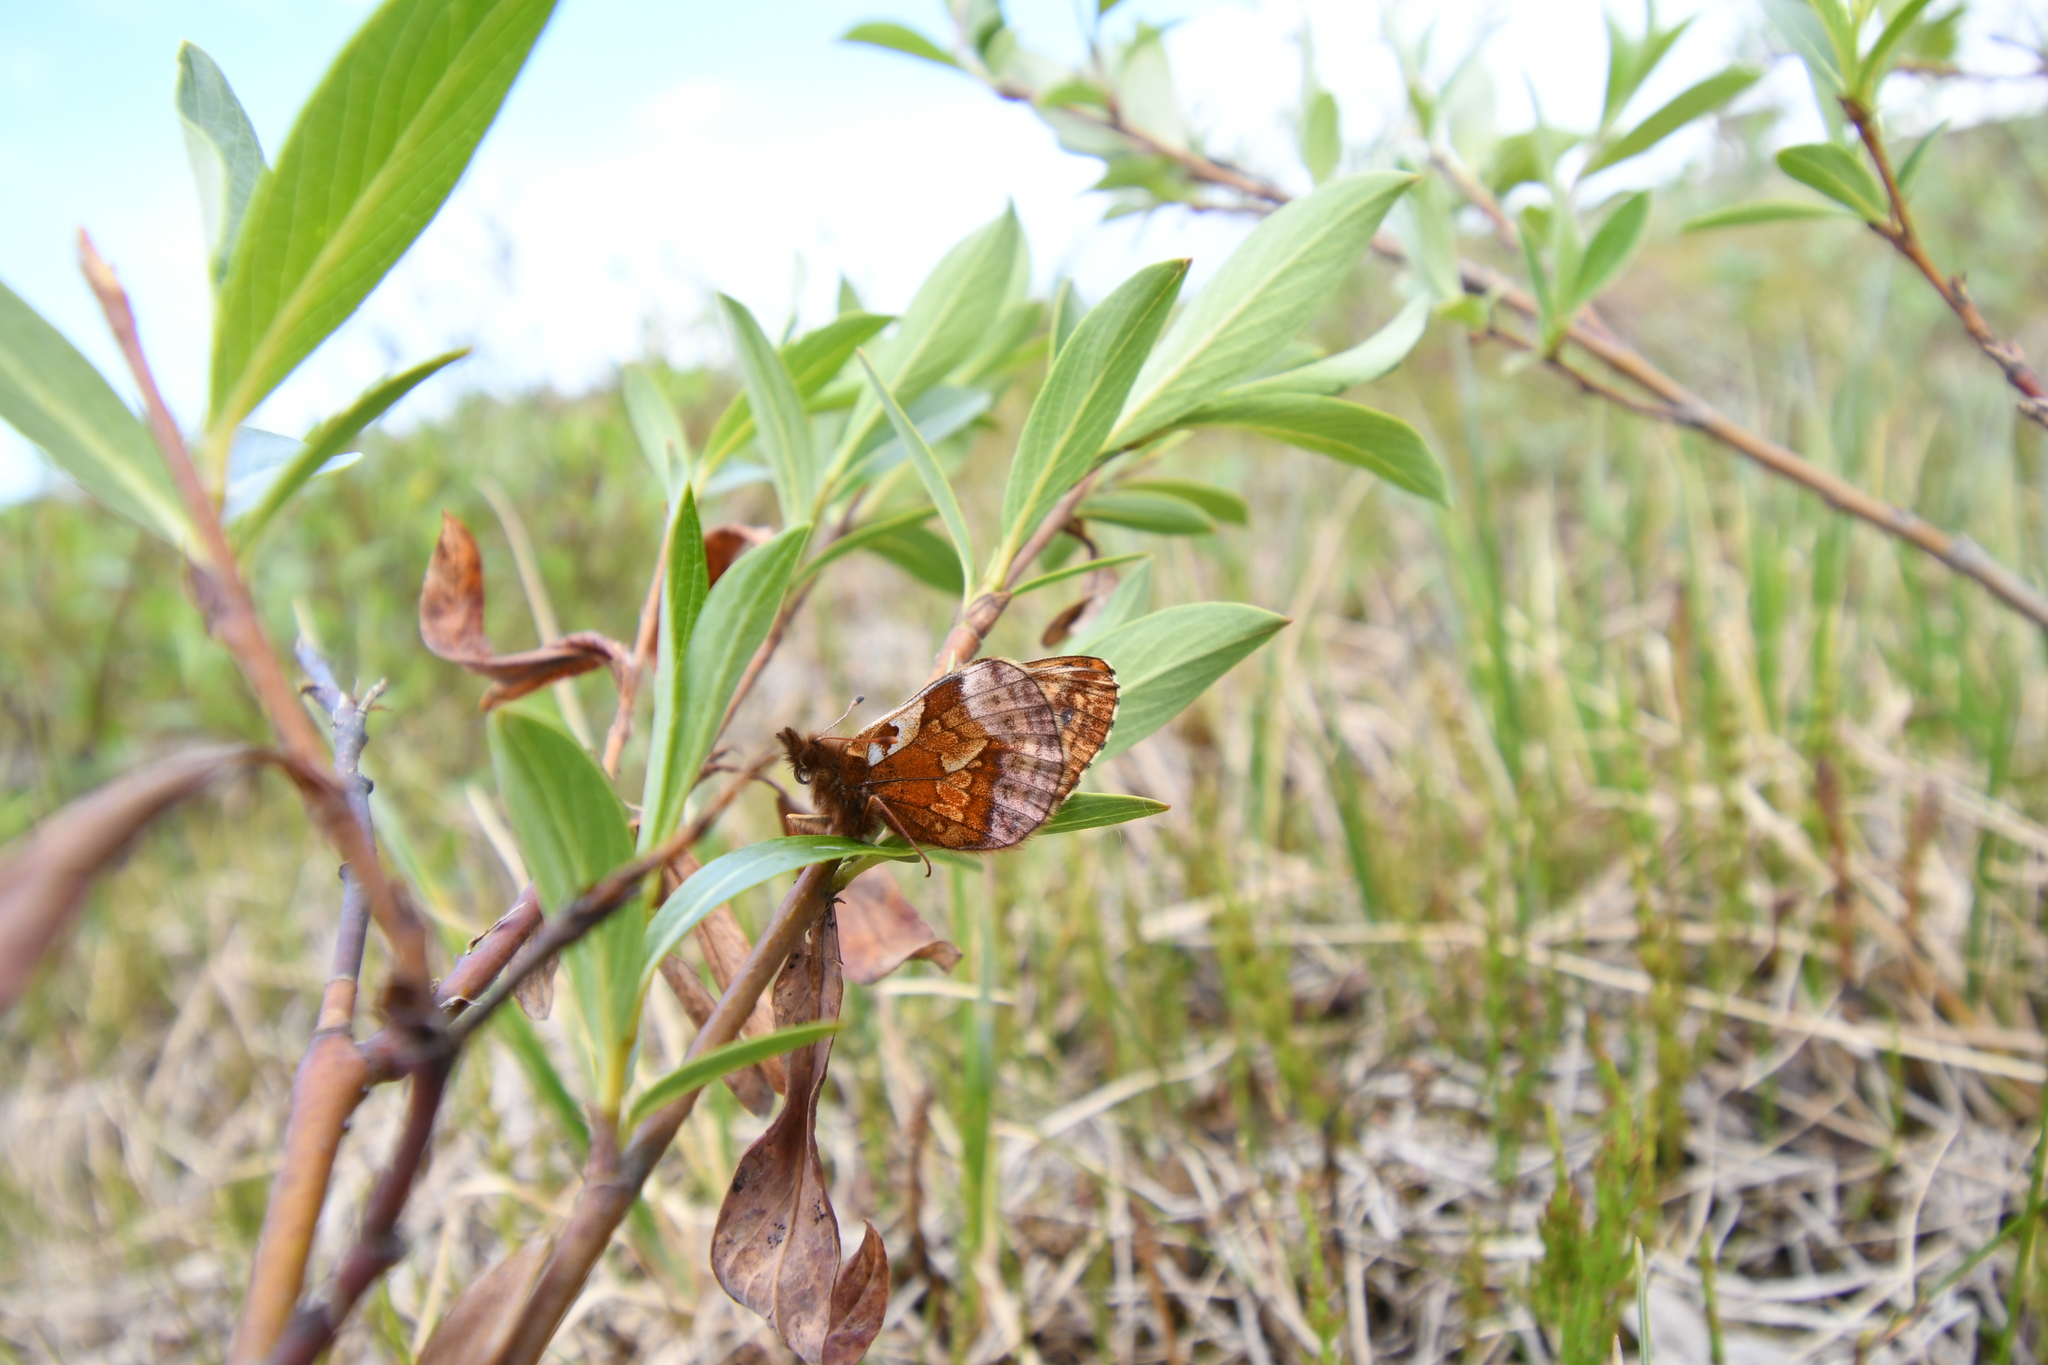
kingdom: Animalia
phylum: Arthropoda
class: Insecta
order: Lepidoptera
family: Nymphalidae
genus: Boloria
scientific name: Boloria frigga
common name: Frigga's fritillary
